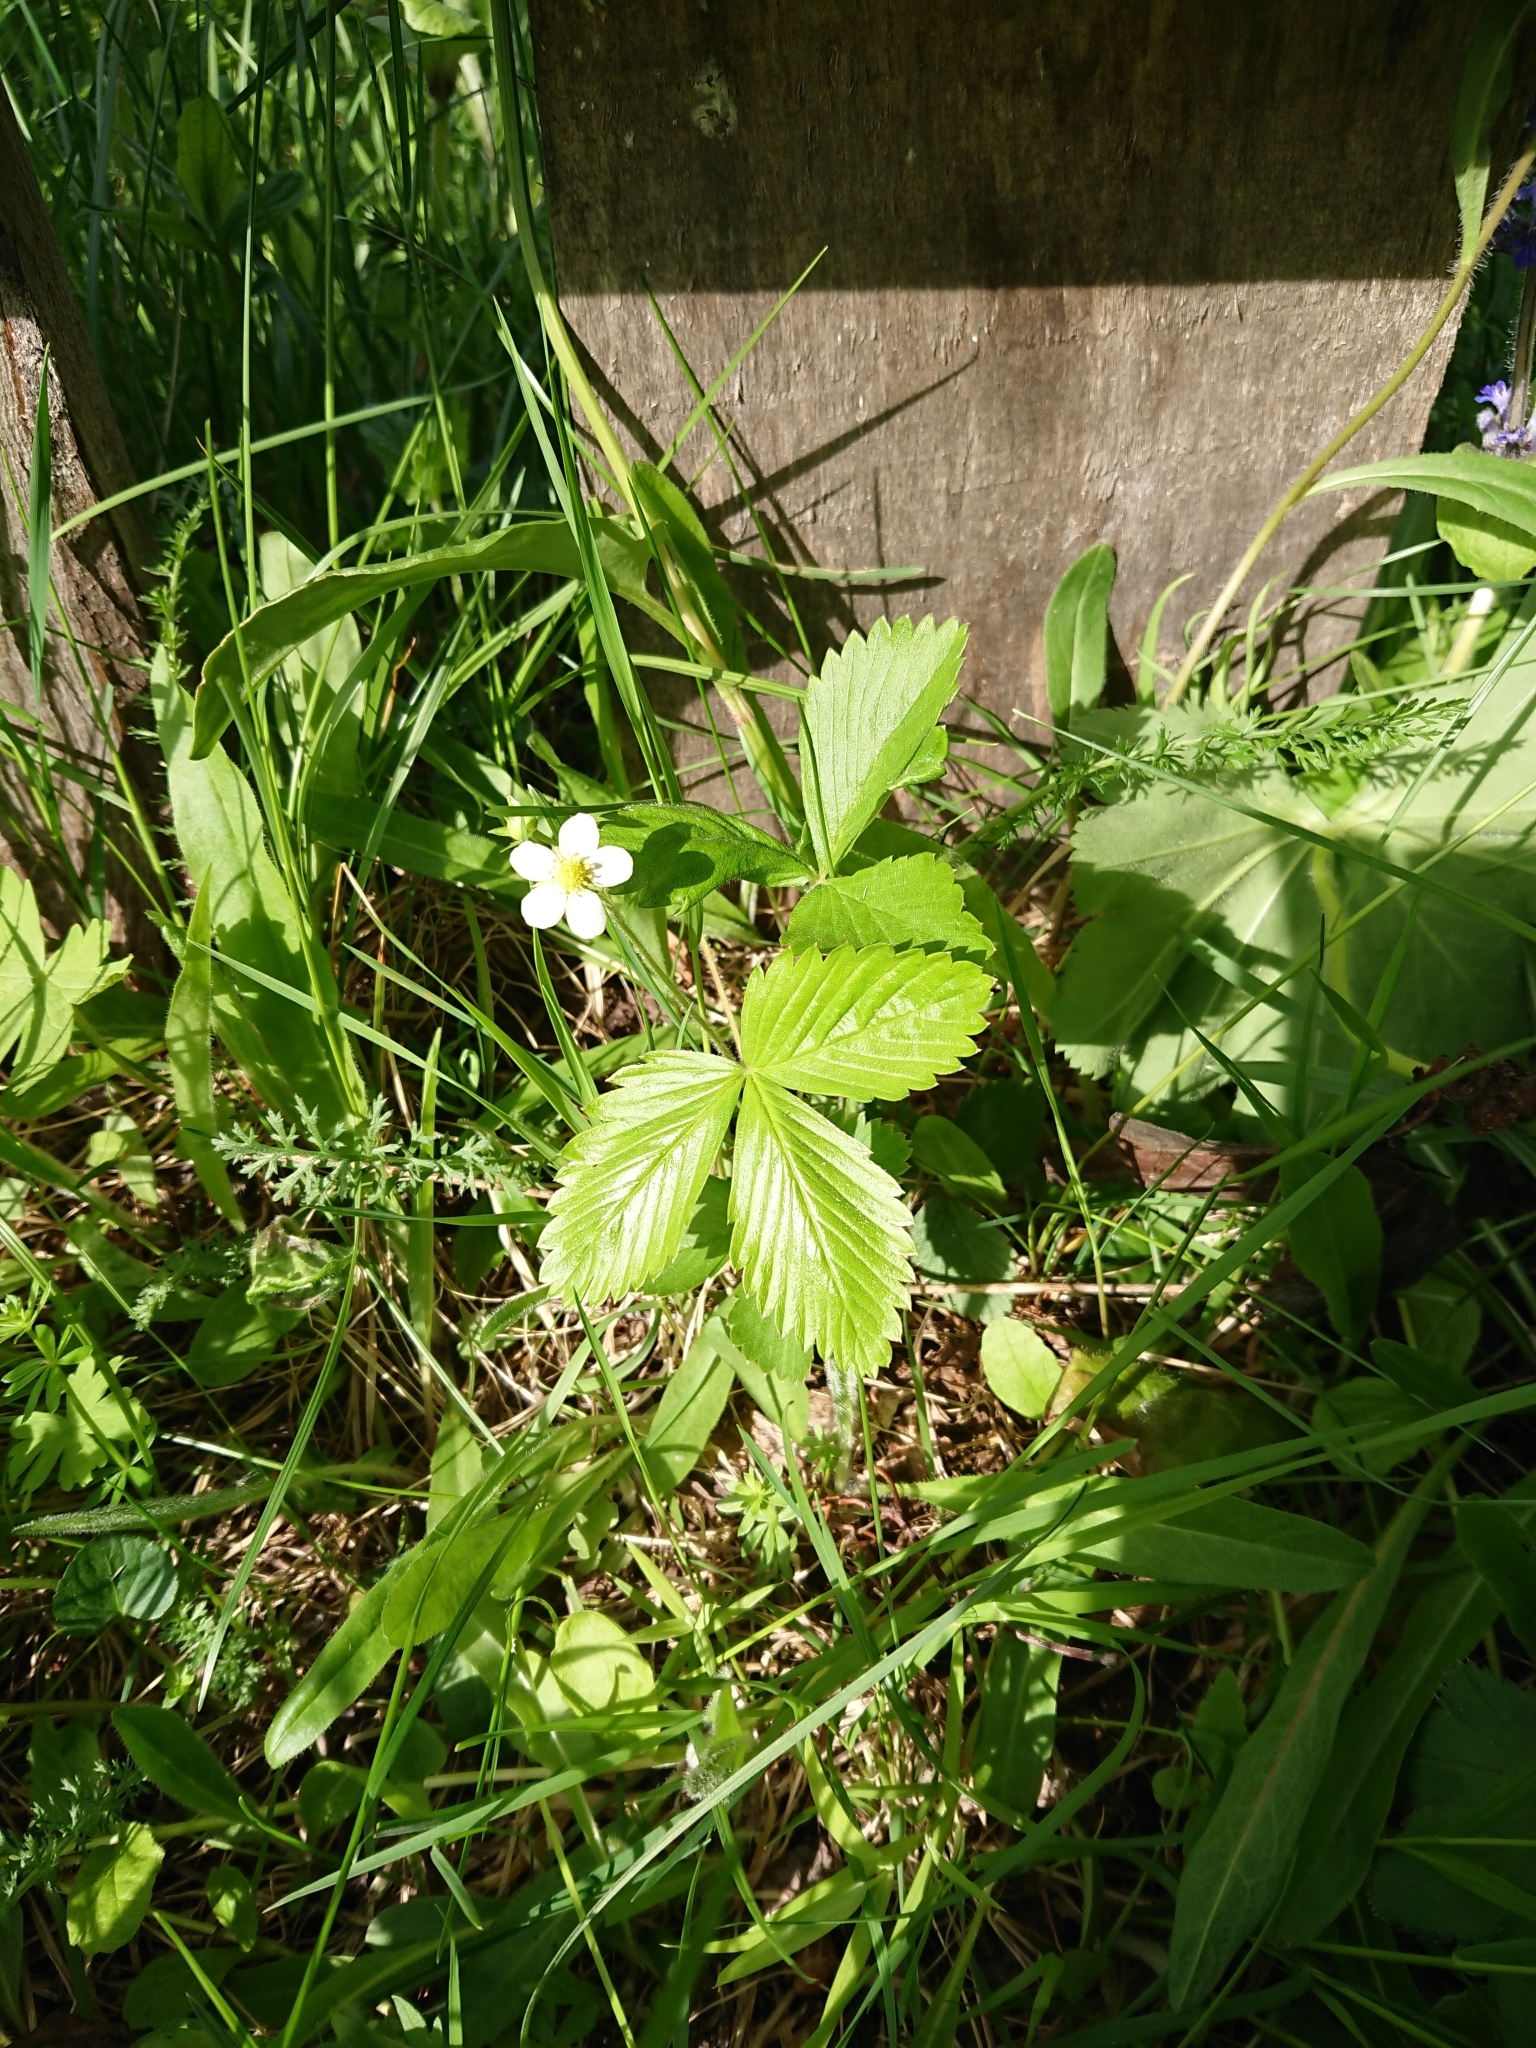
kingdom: Plantae
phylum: Tracheophyta
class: Magnoliopsida
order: Rosales
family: Rosaceae
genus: Fragaria
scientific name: Fragaria vesca
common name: Wild strawberry
